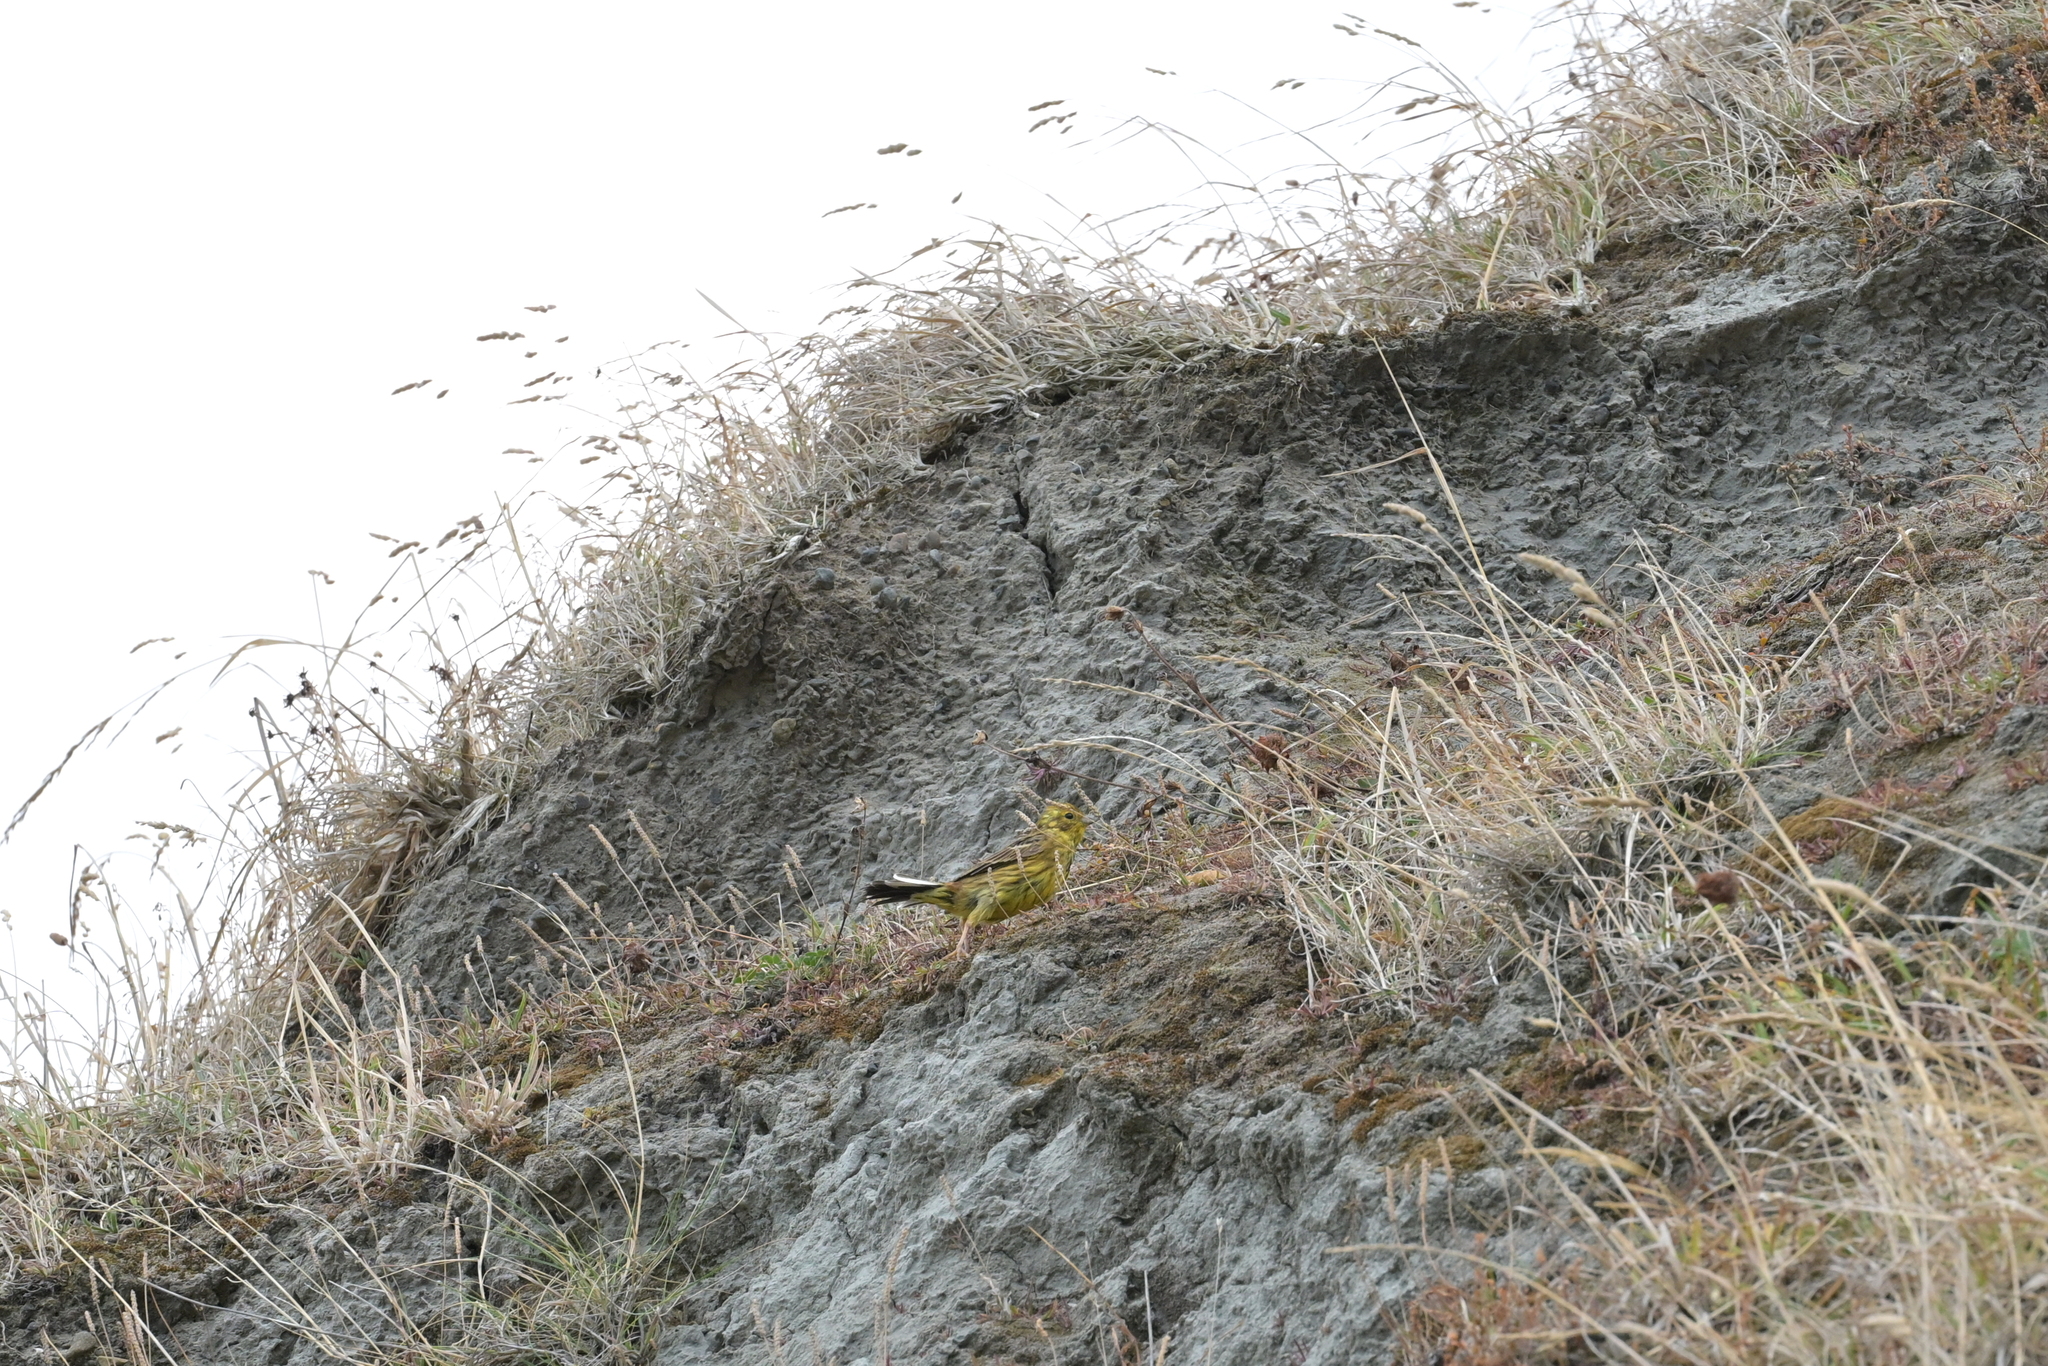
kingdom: Animalia
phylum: Chordata
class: Aves
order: Passeriformes
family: Emberizidae
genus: Emberiza
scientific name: Emberiza citrinella
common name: Yellowhammer
